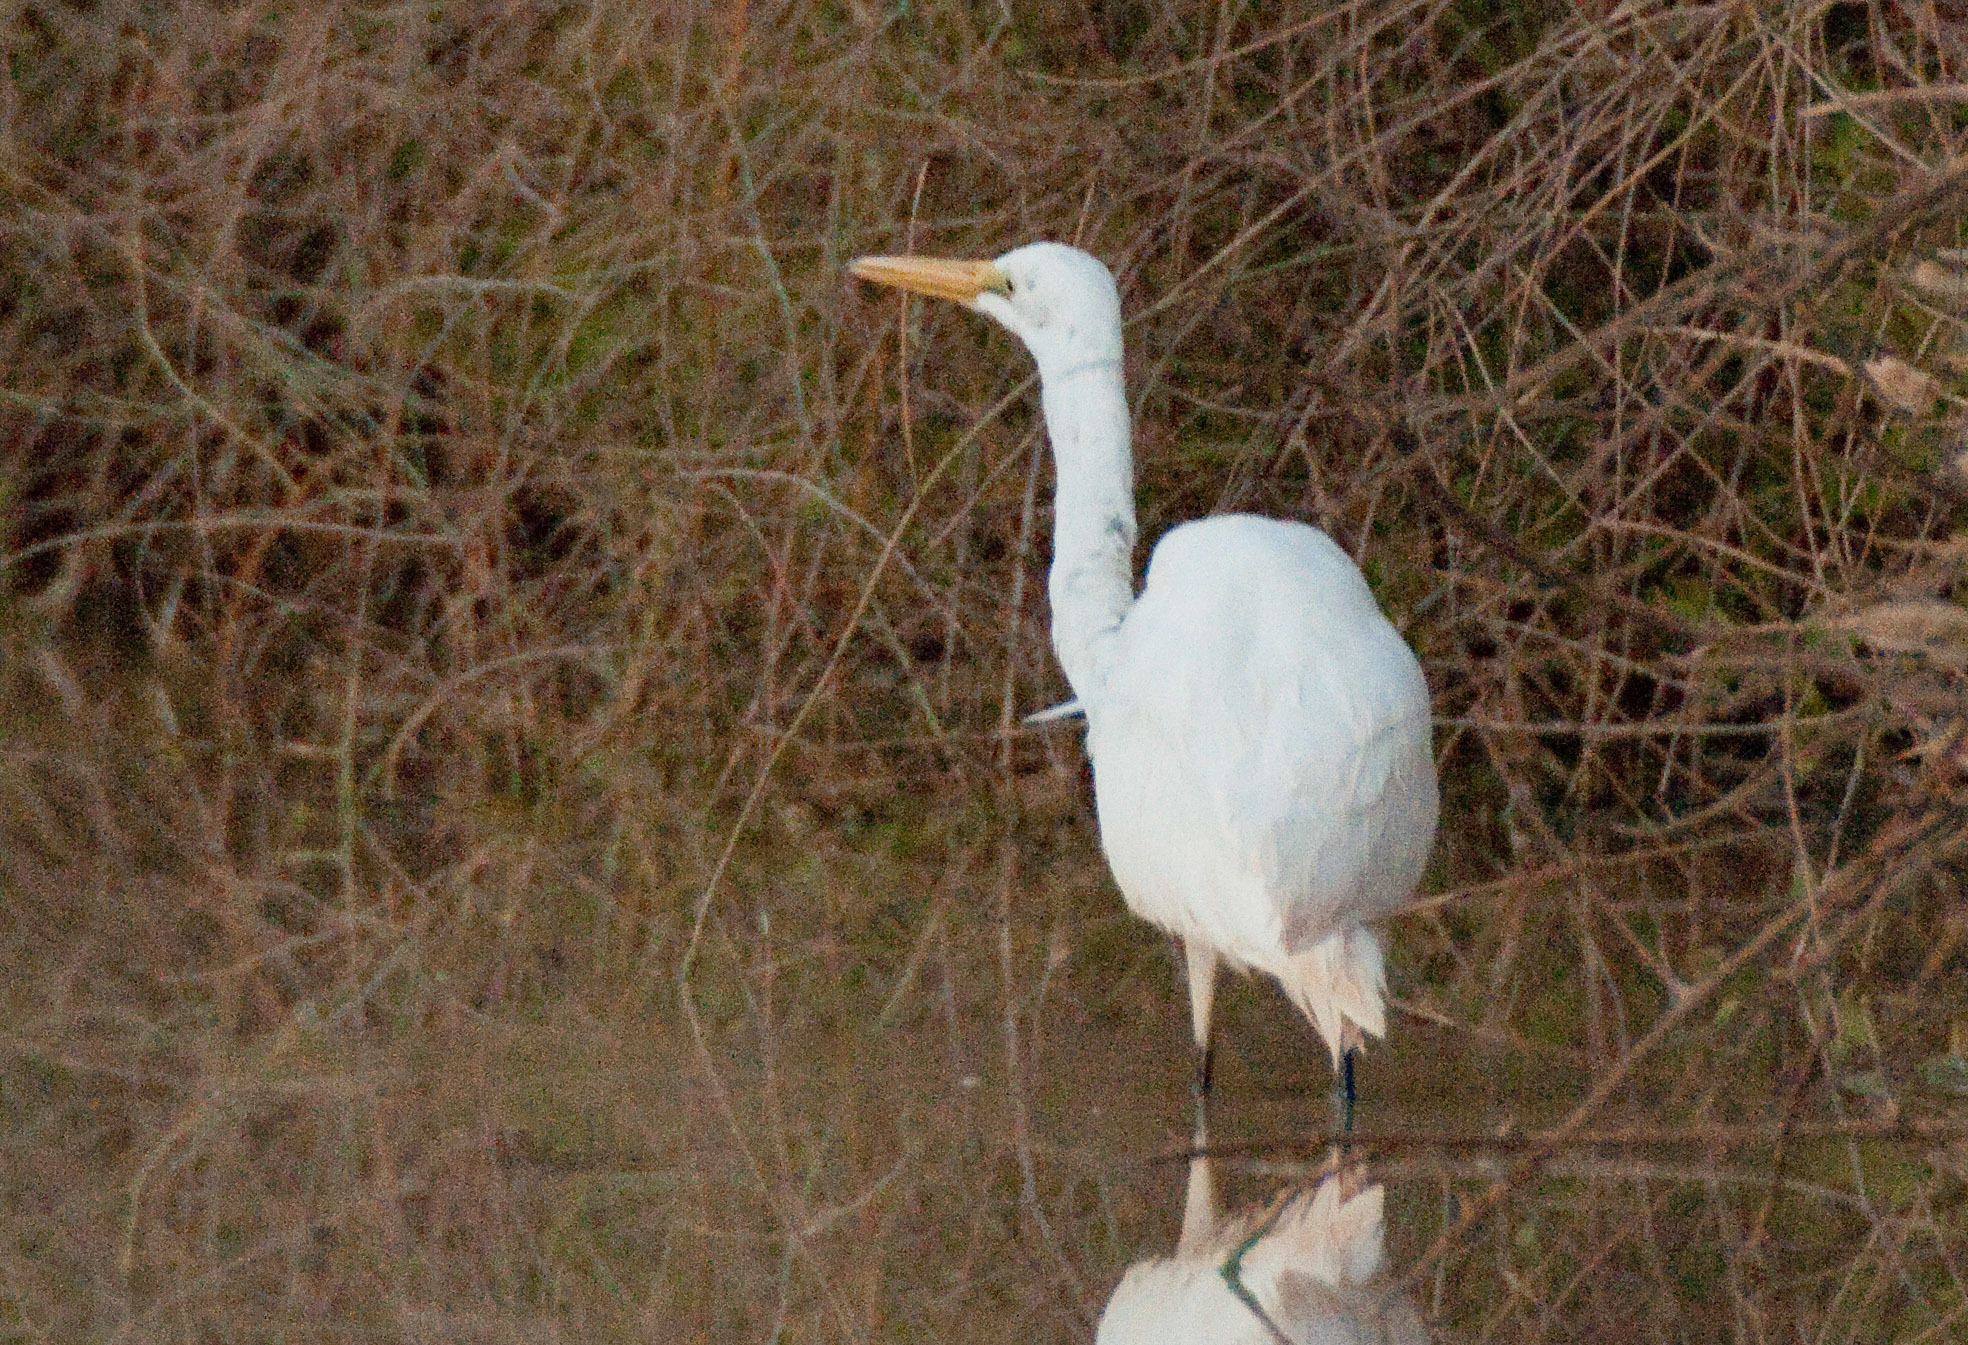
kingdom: Animalia
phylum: Chordata
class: Aves
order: Pelecaniformes
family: Ardeidae
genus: Ardea
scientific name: Ardea alba
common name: Great egret
